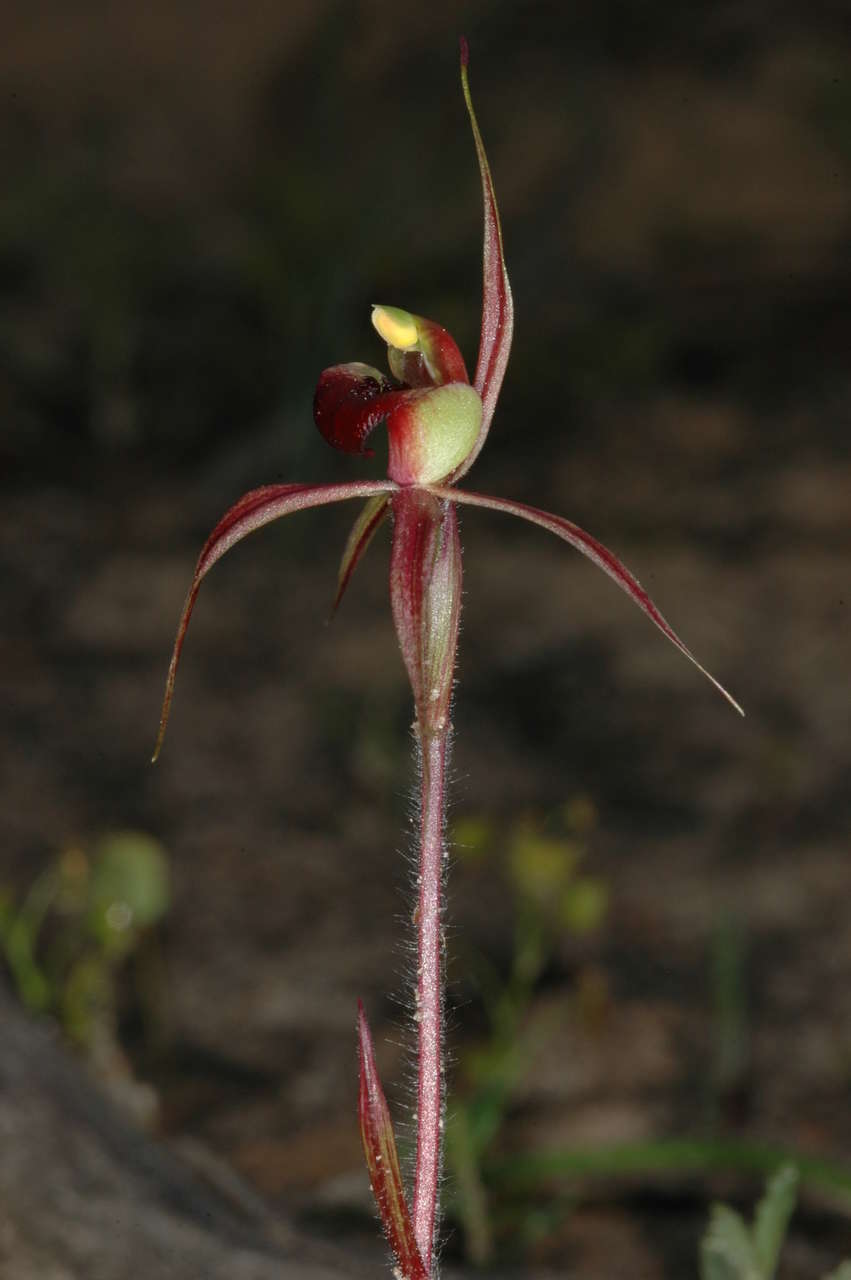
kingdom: Plantae
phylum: Tracheophyta
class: Liliopsida
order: Asparagales
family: Orchidaceae
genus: Caladenia
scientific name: Caladenia clavigera
